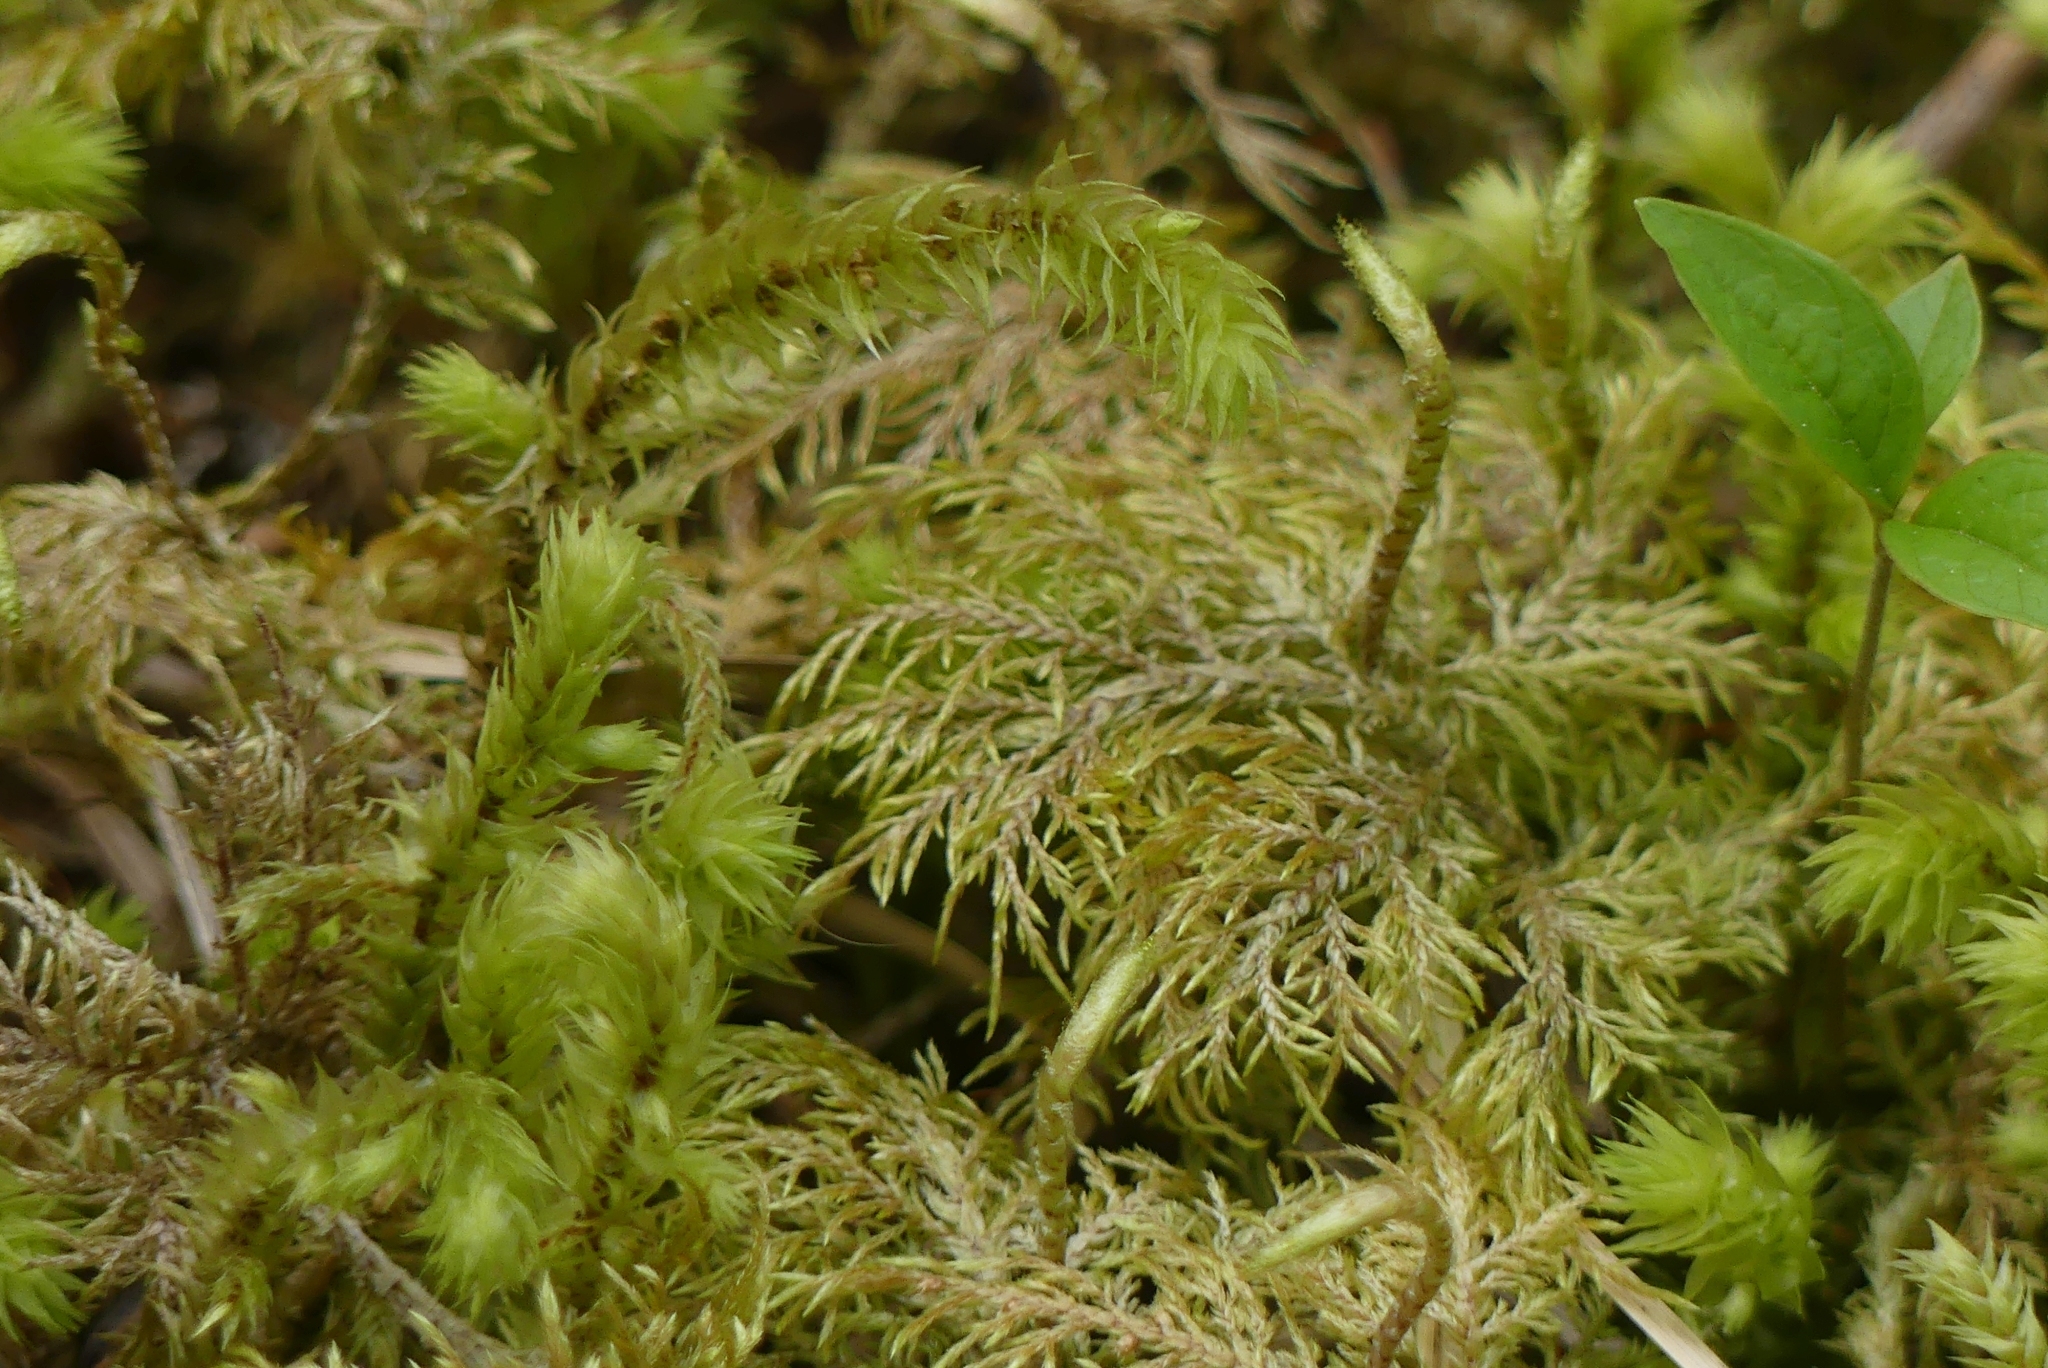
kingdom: Plantae
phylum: Bryophyta
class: Bryopsida
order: Hypnales
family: Hylocomiaceae
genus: Hylocomium
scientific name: Hylocomium splendens
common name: Stairstep moss
